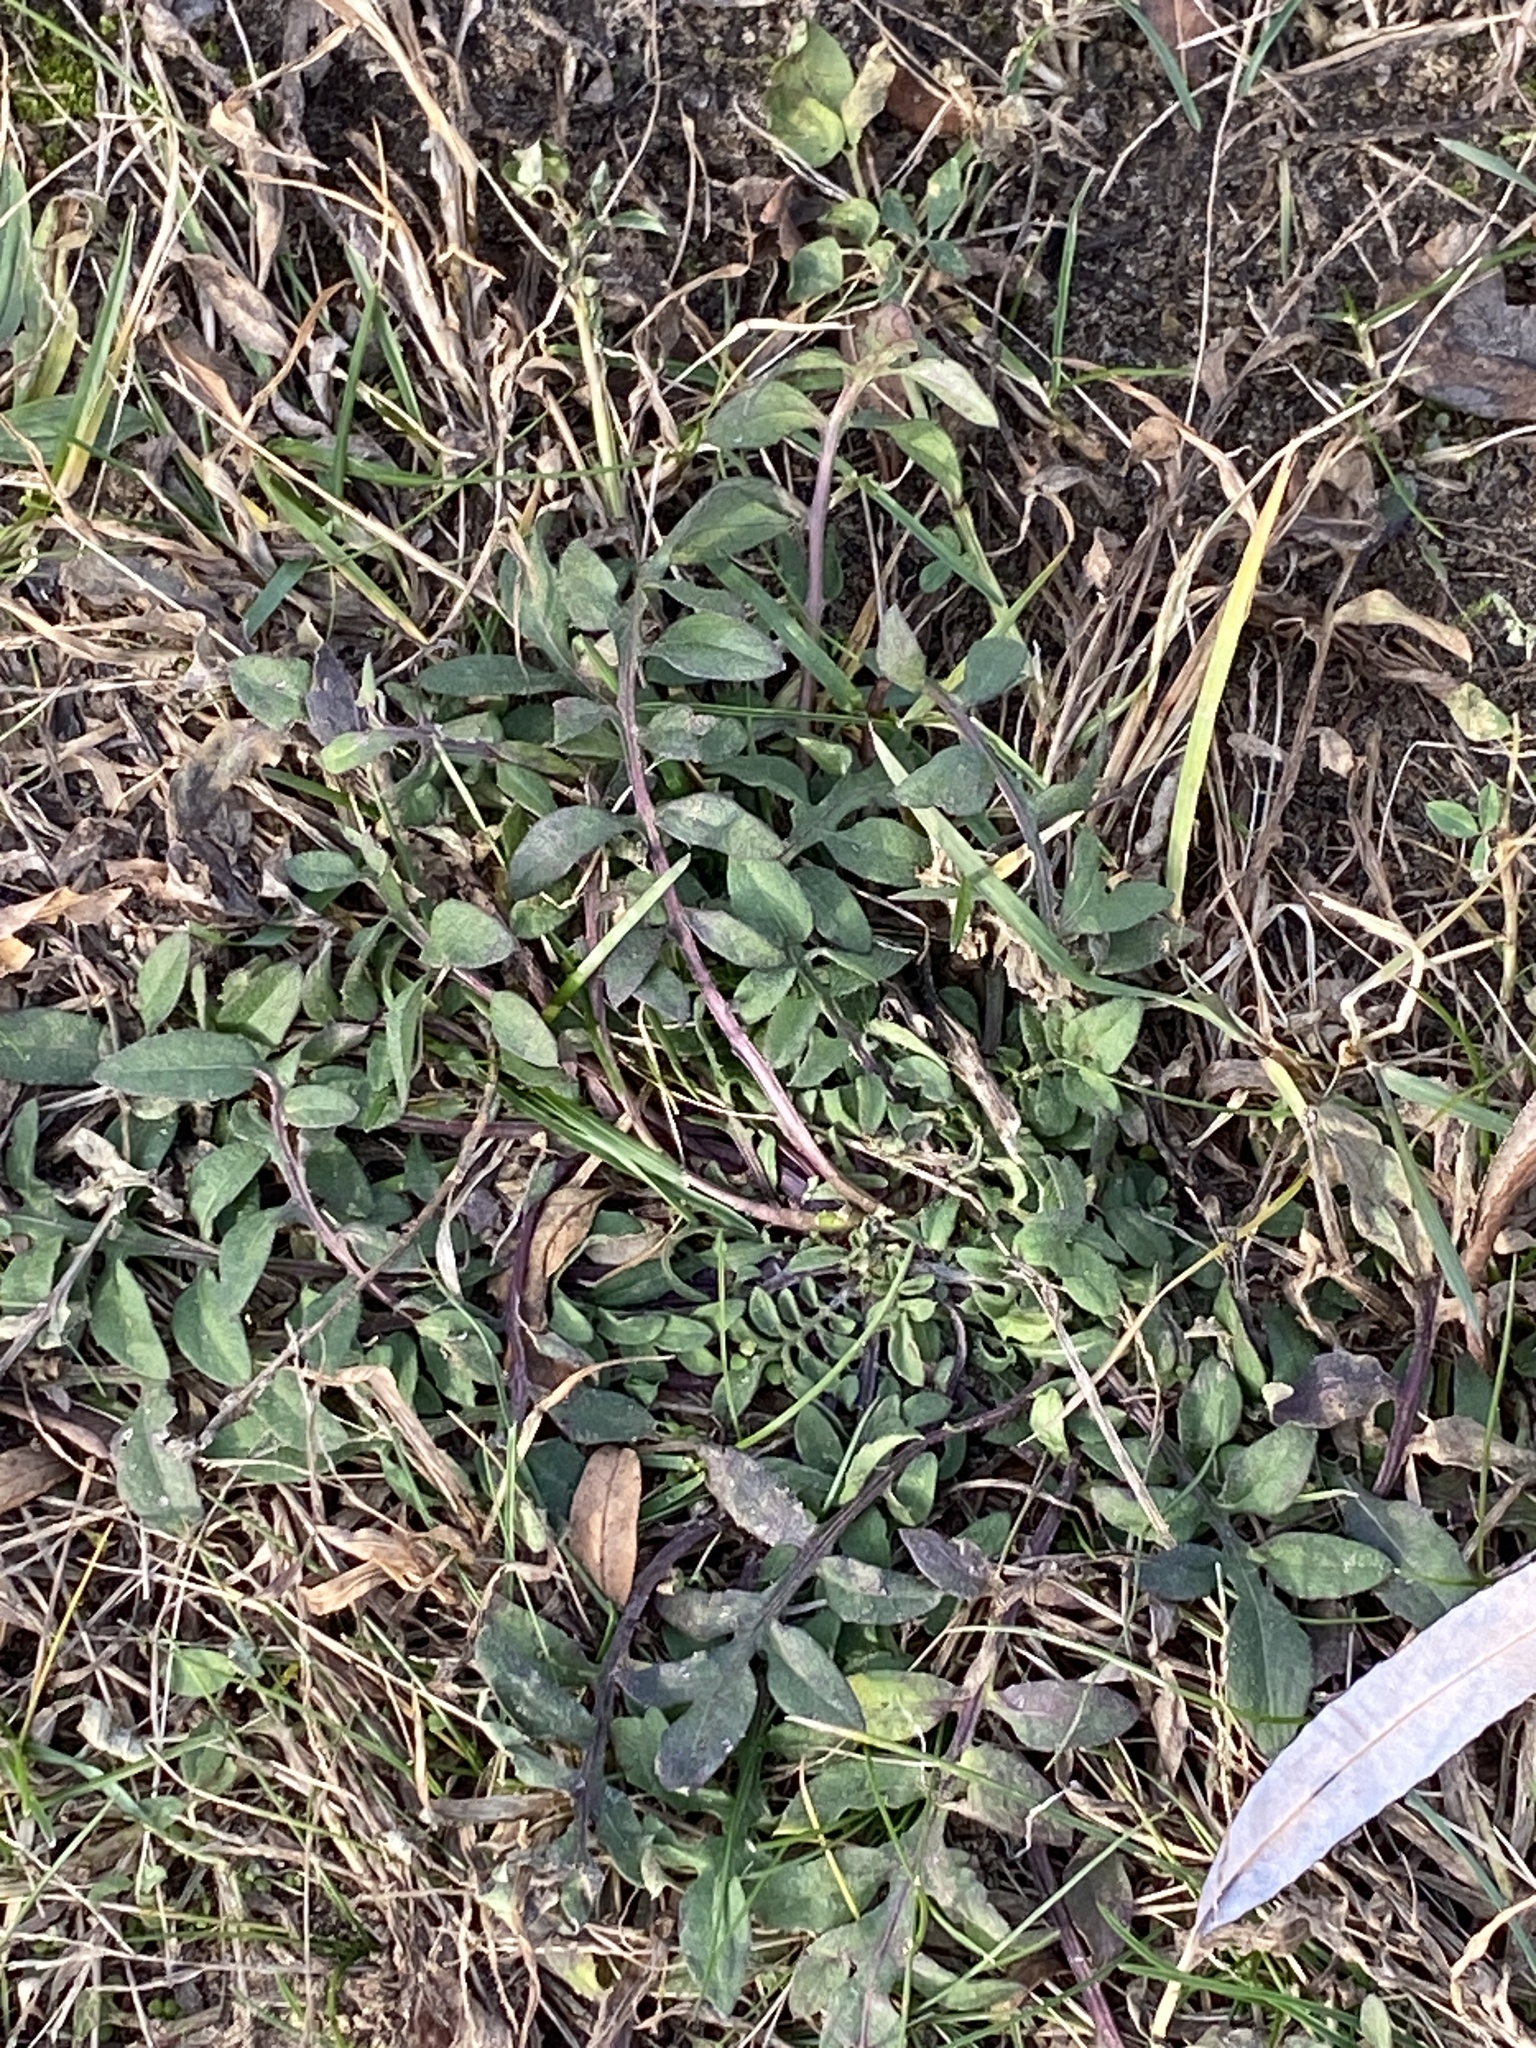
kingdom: Plantae
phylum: Tracheophyta
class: Magnoliopsida
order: Asterales
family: Asteraceae
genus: Centaurea
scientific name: Centaurea stoebe
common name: Spotted knapweed
